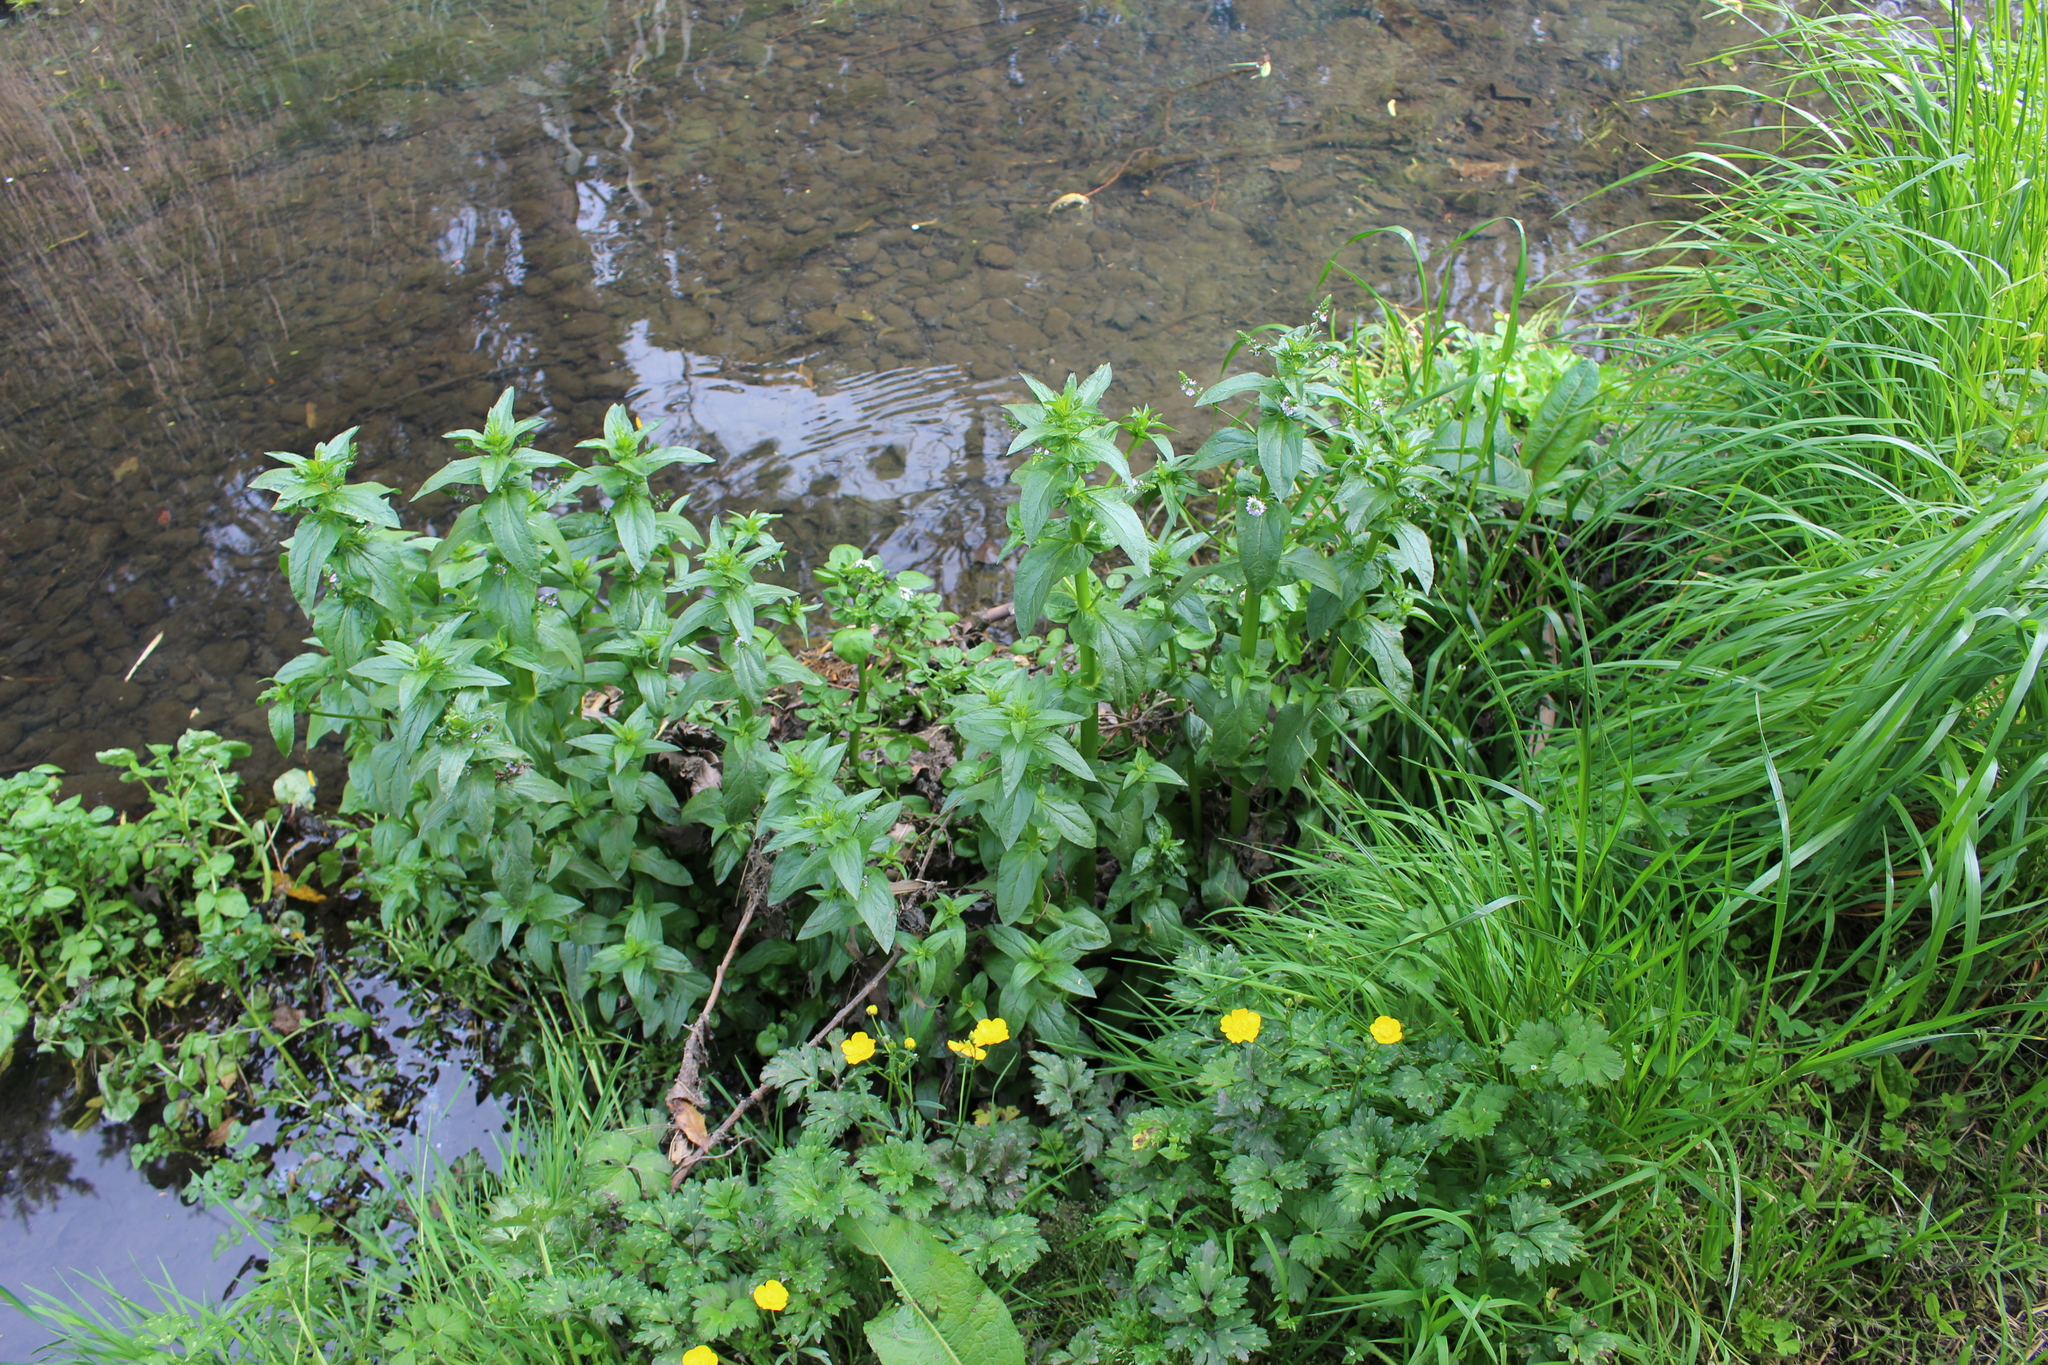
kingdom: Plantae
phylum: Tracheophyta
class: Magnoliopsida
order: Lamiales
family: Plantaginaceae
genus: Veronica
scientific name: Veronica anagallis-aquatica
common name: Water speedwell
